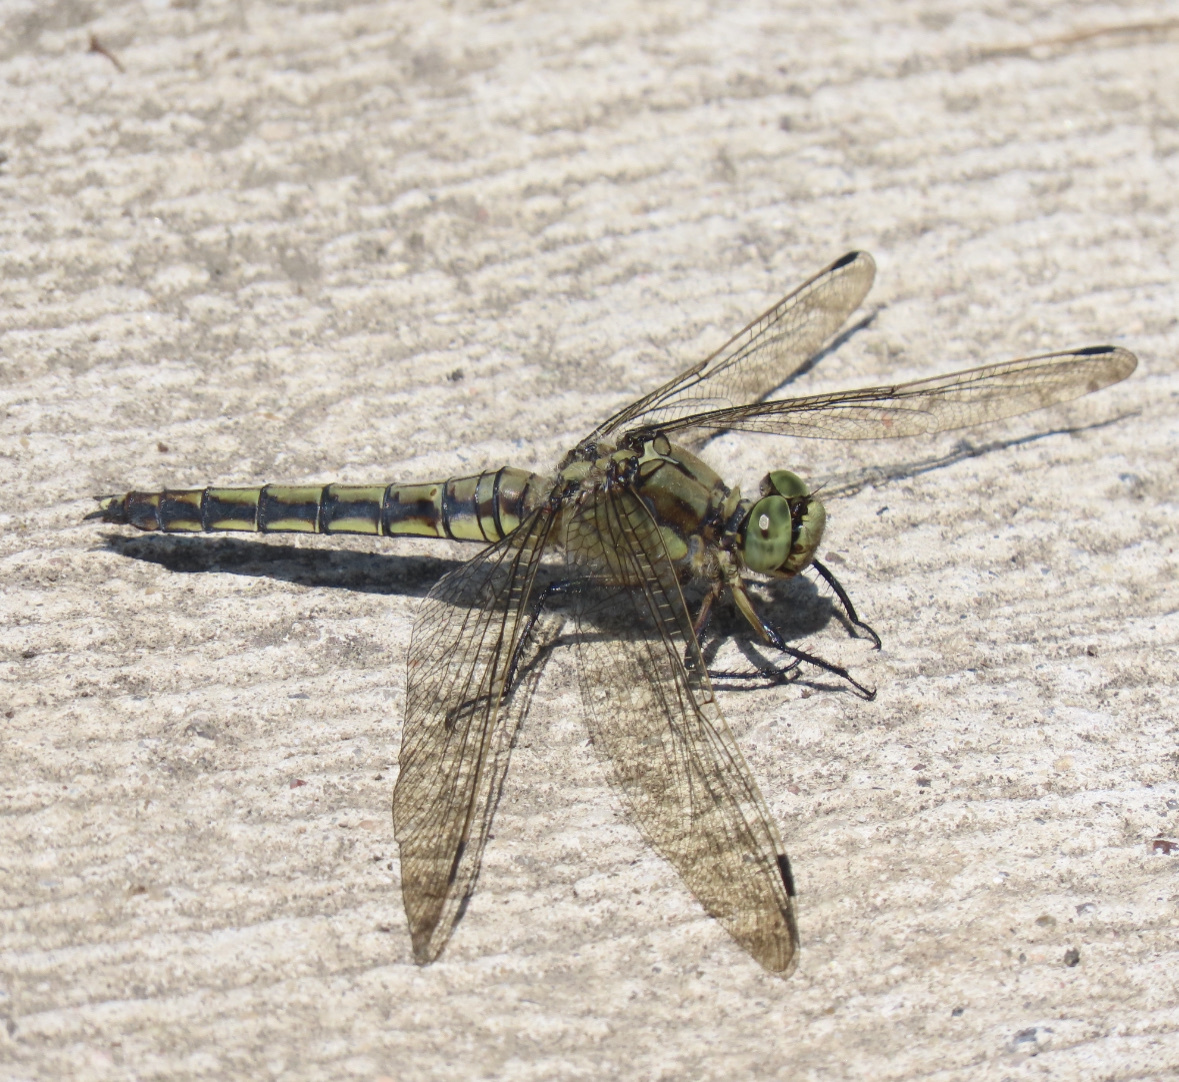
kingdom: Animalia
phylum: Arthropoda
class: Insecta
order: Odonata
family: Libellulidae
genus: Orthetrum
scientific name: Orthetrum cancellatum
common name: Black-tailed skimmer
